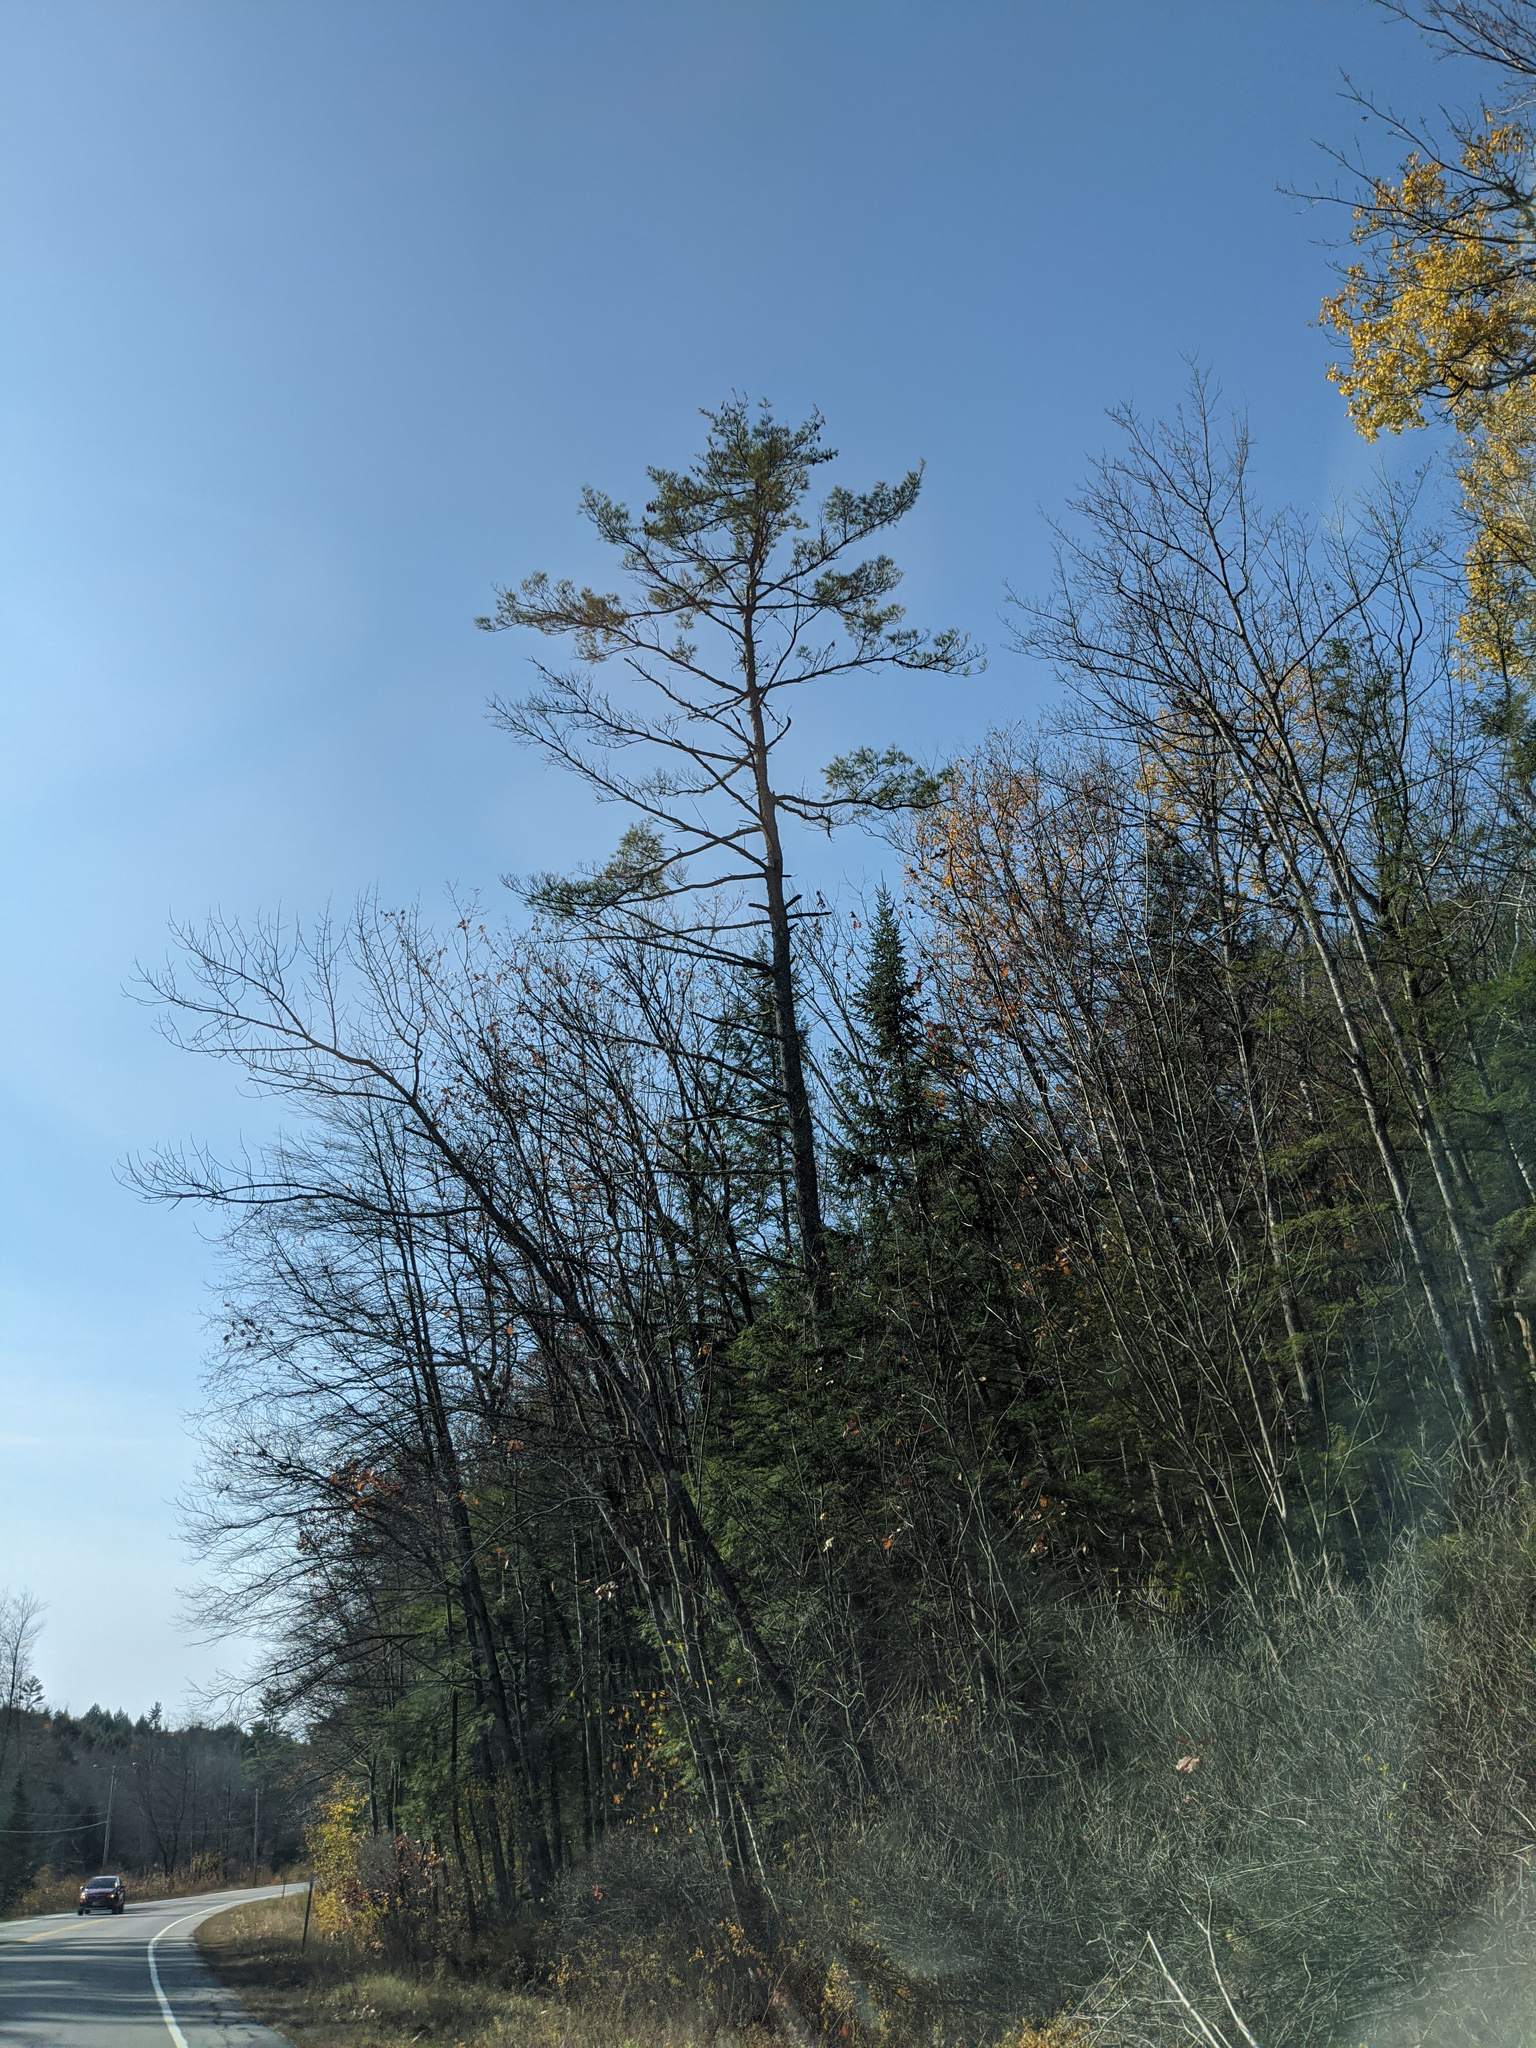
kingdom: Plantae
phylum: Tracheophyta
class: Pinopsida
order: Pinales
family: Pinaceae
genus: Pinus
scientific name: Pinus strobus
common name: Weymouth pine
